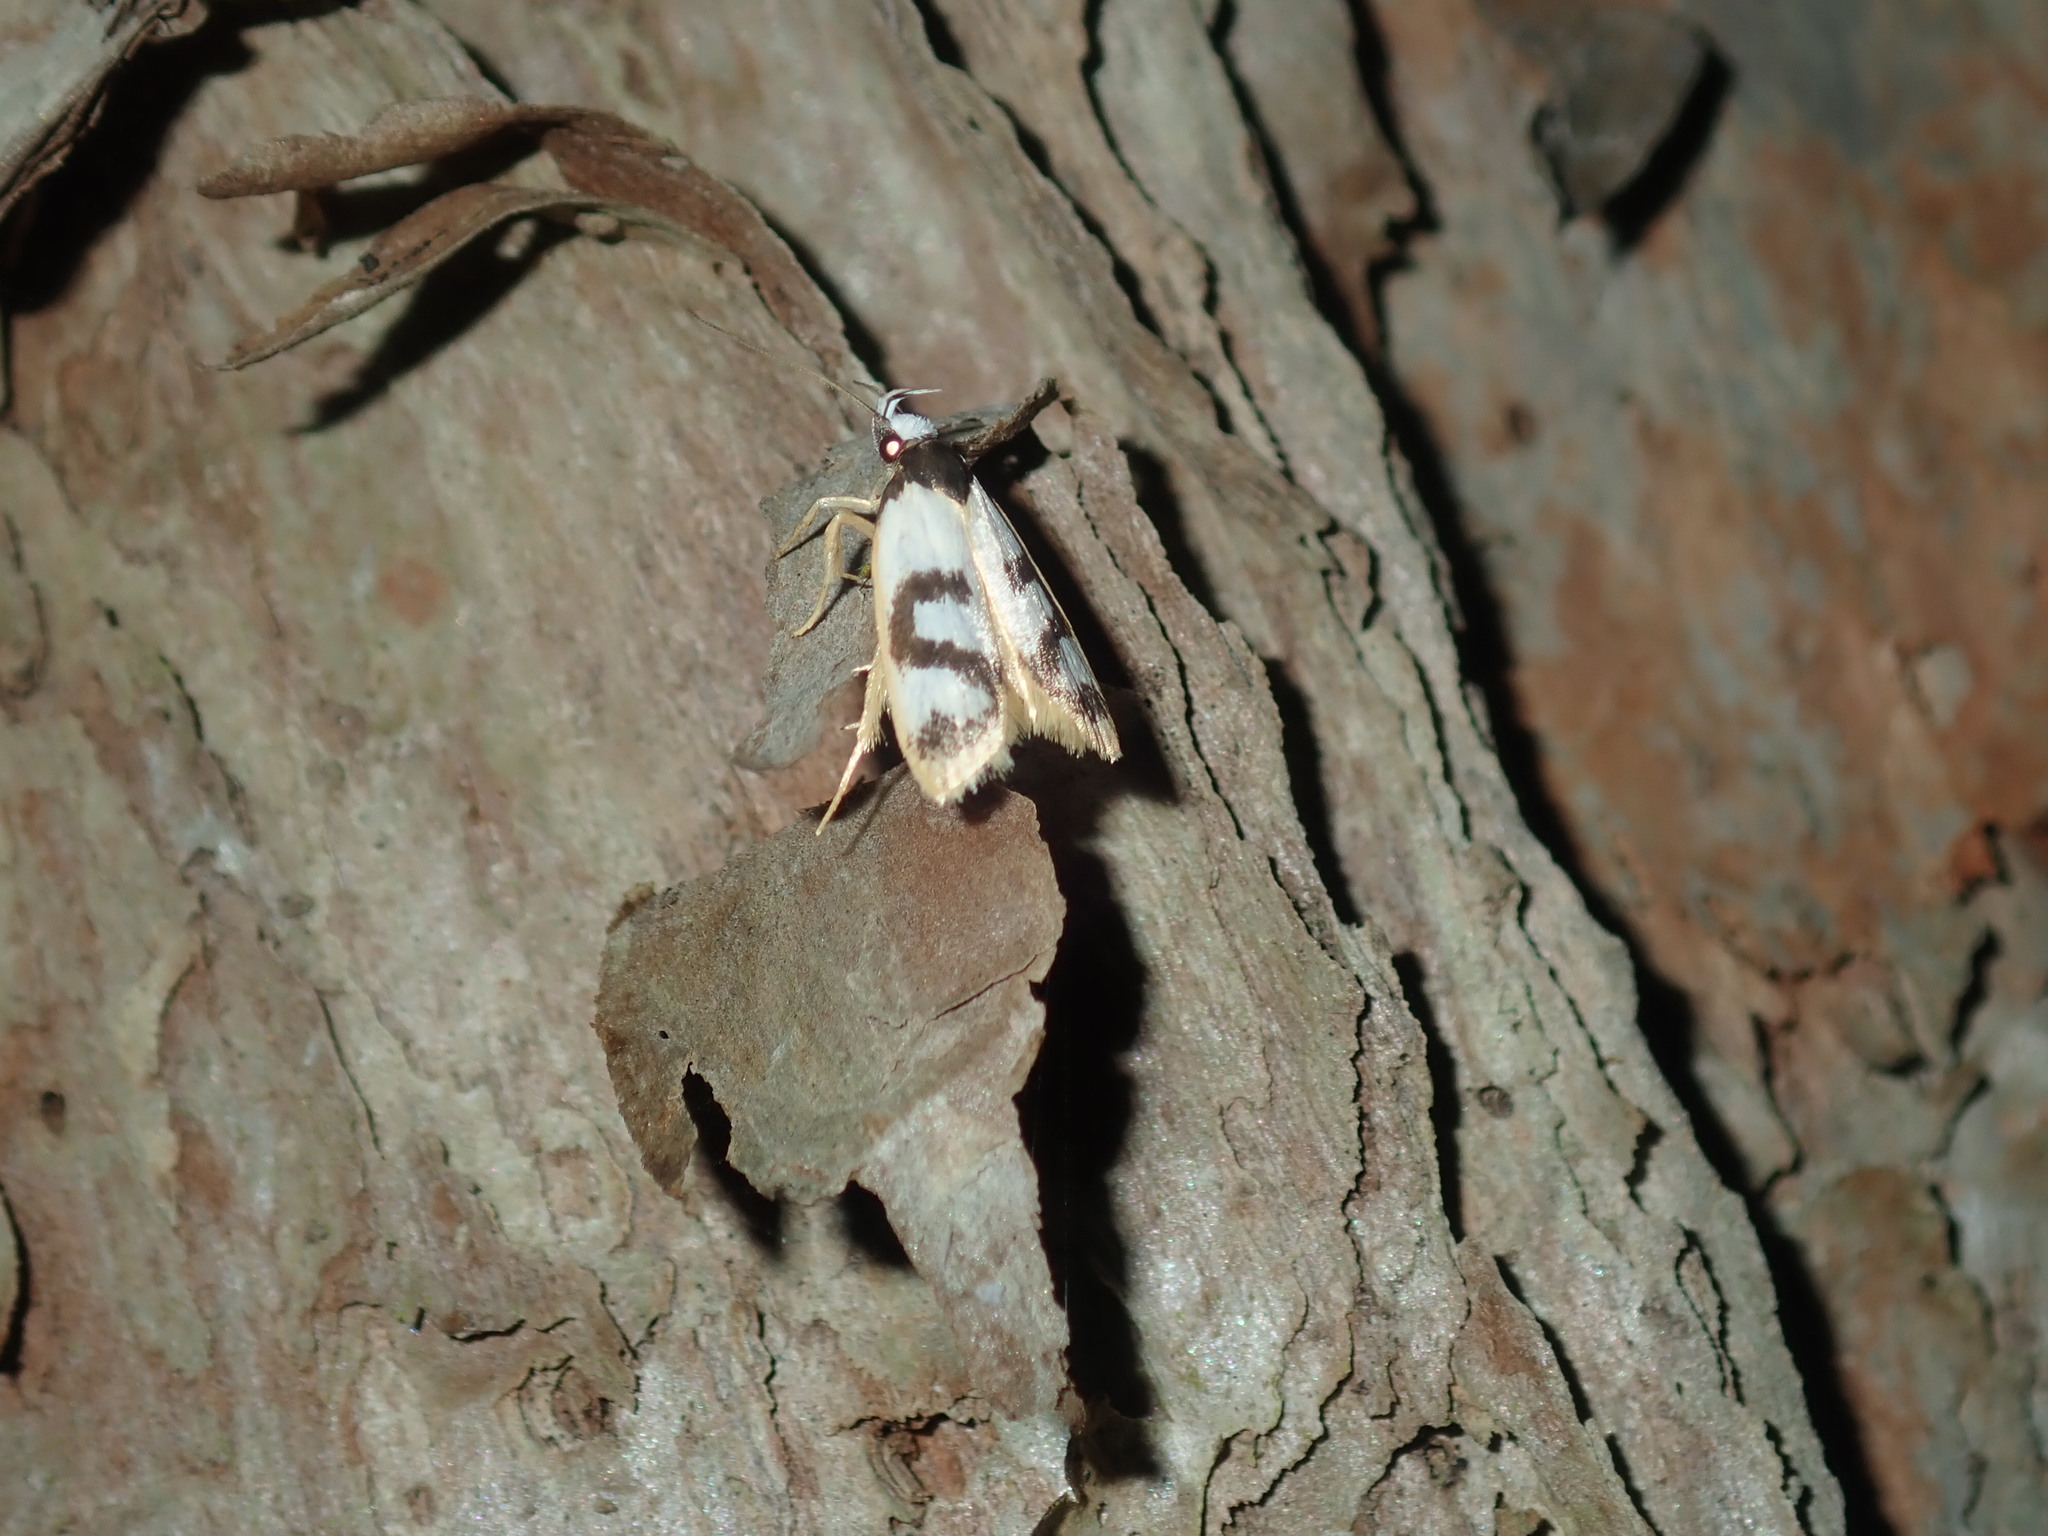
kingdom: Animalia
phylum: Arthropoda
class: Insecta
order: Lepidoptera
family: Oecophoridae
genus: Eulechria
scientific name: Eulechria sigmophora
